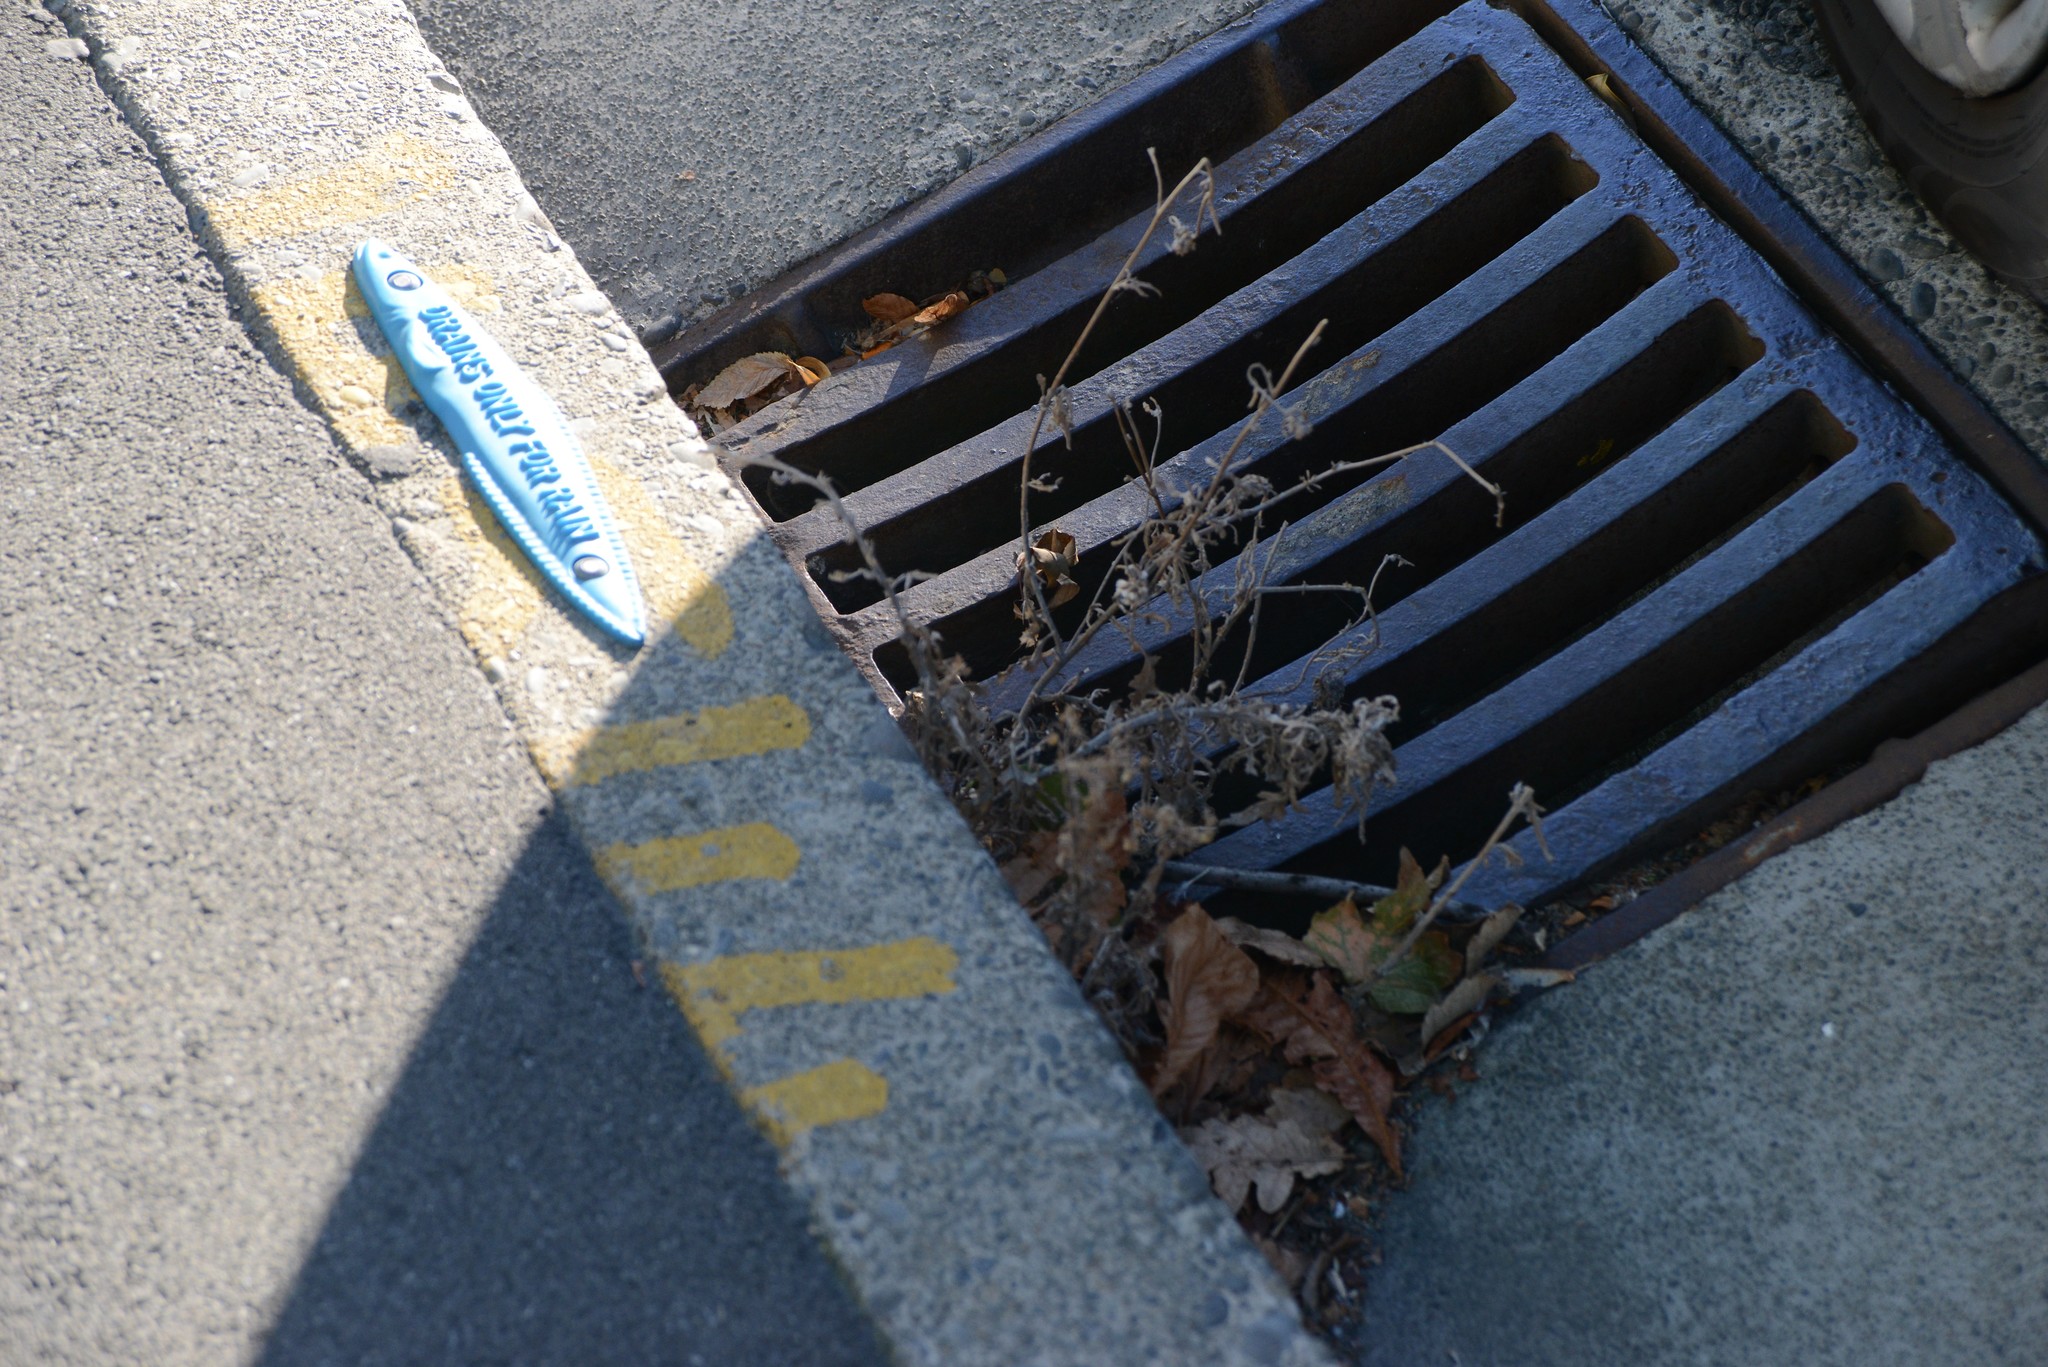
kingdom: Plantae
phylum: Tracheophyta
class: Magnoliopsida
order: Asterales
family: Asteraceae
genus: Senecio
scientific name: Senecio glomeratus
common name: Cutleaf burnweed
